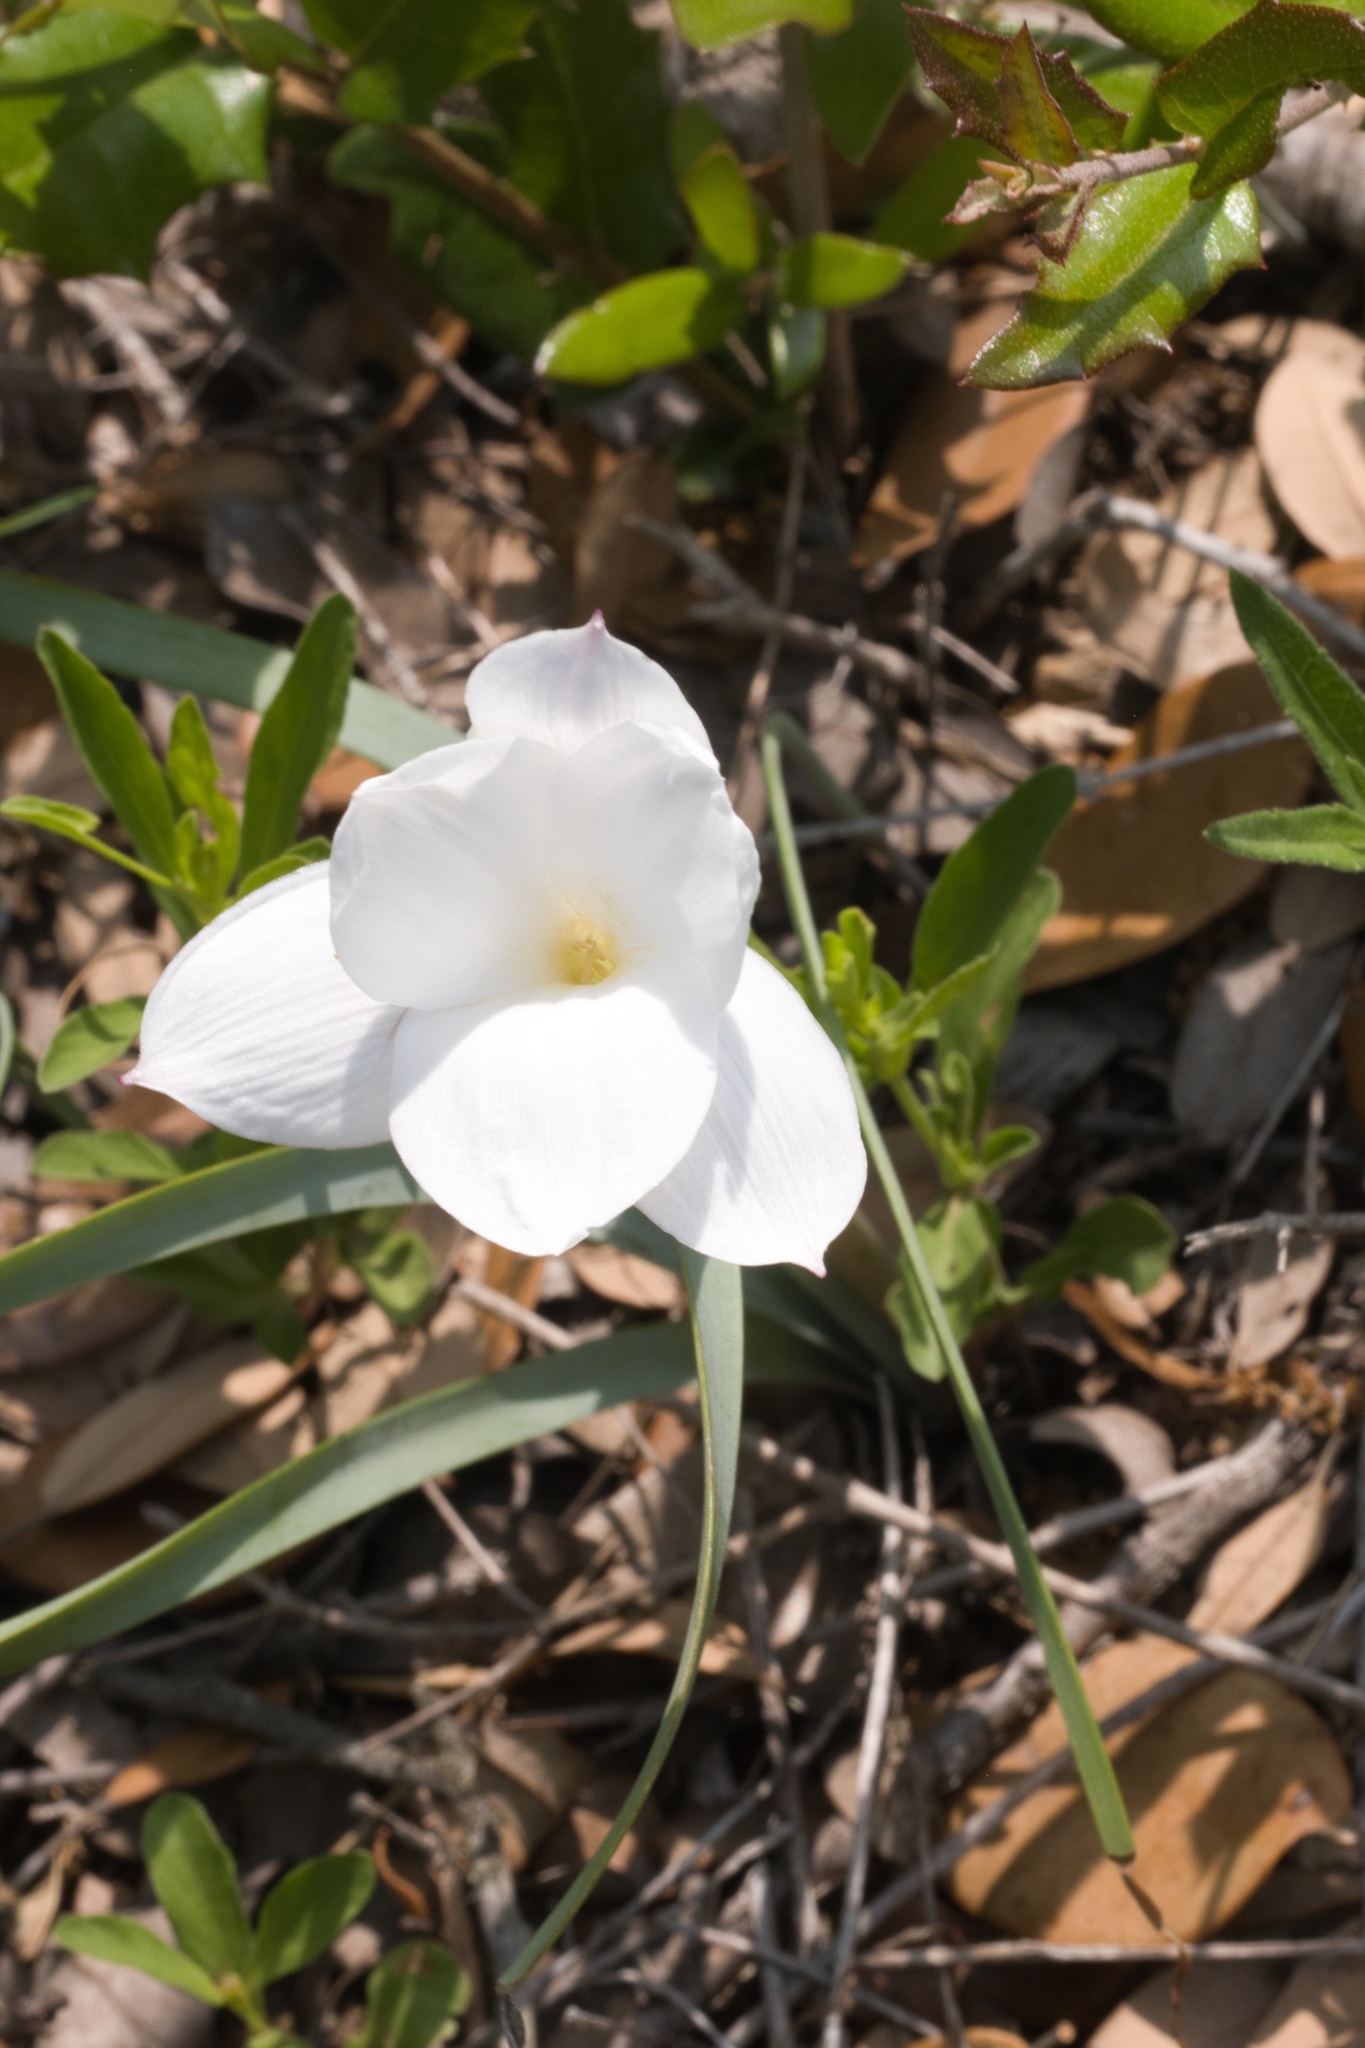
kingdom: Plantae
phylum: Tracheophyta
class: Liliopsida
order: Asparagales
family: Amaryllidaceae
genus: Zephyranthes
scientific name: Zephyranthes drummondii
